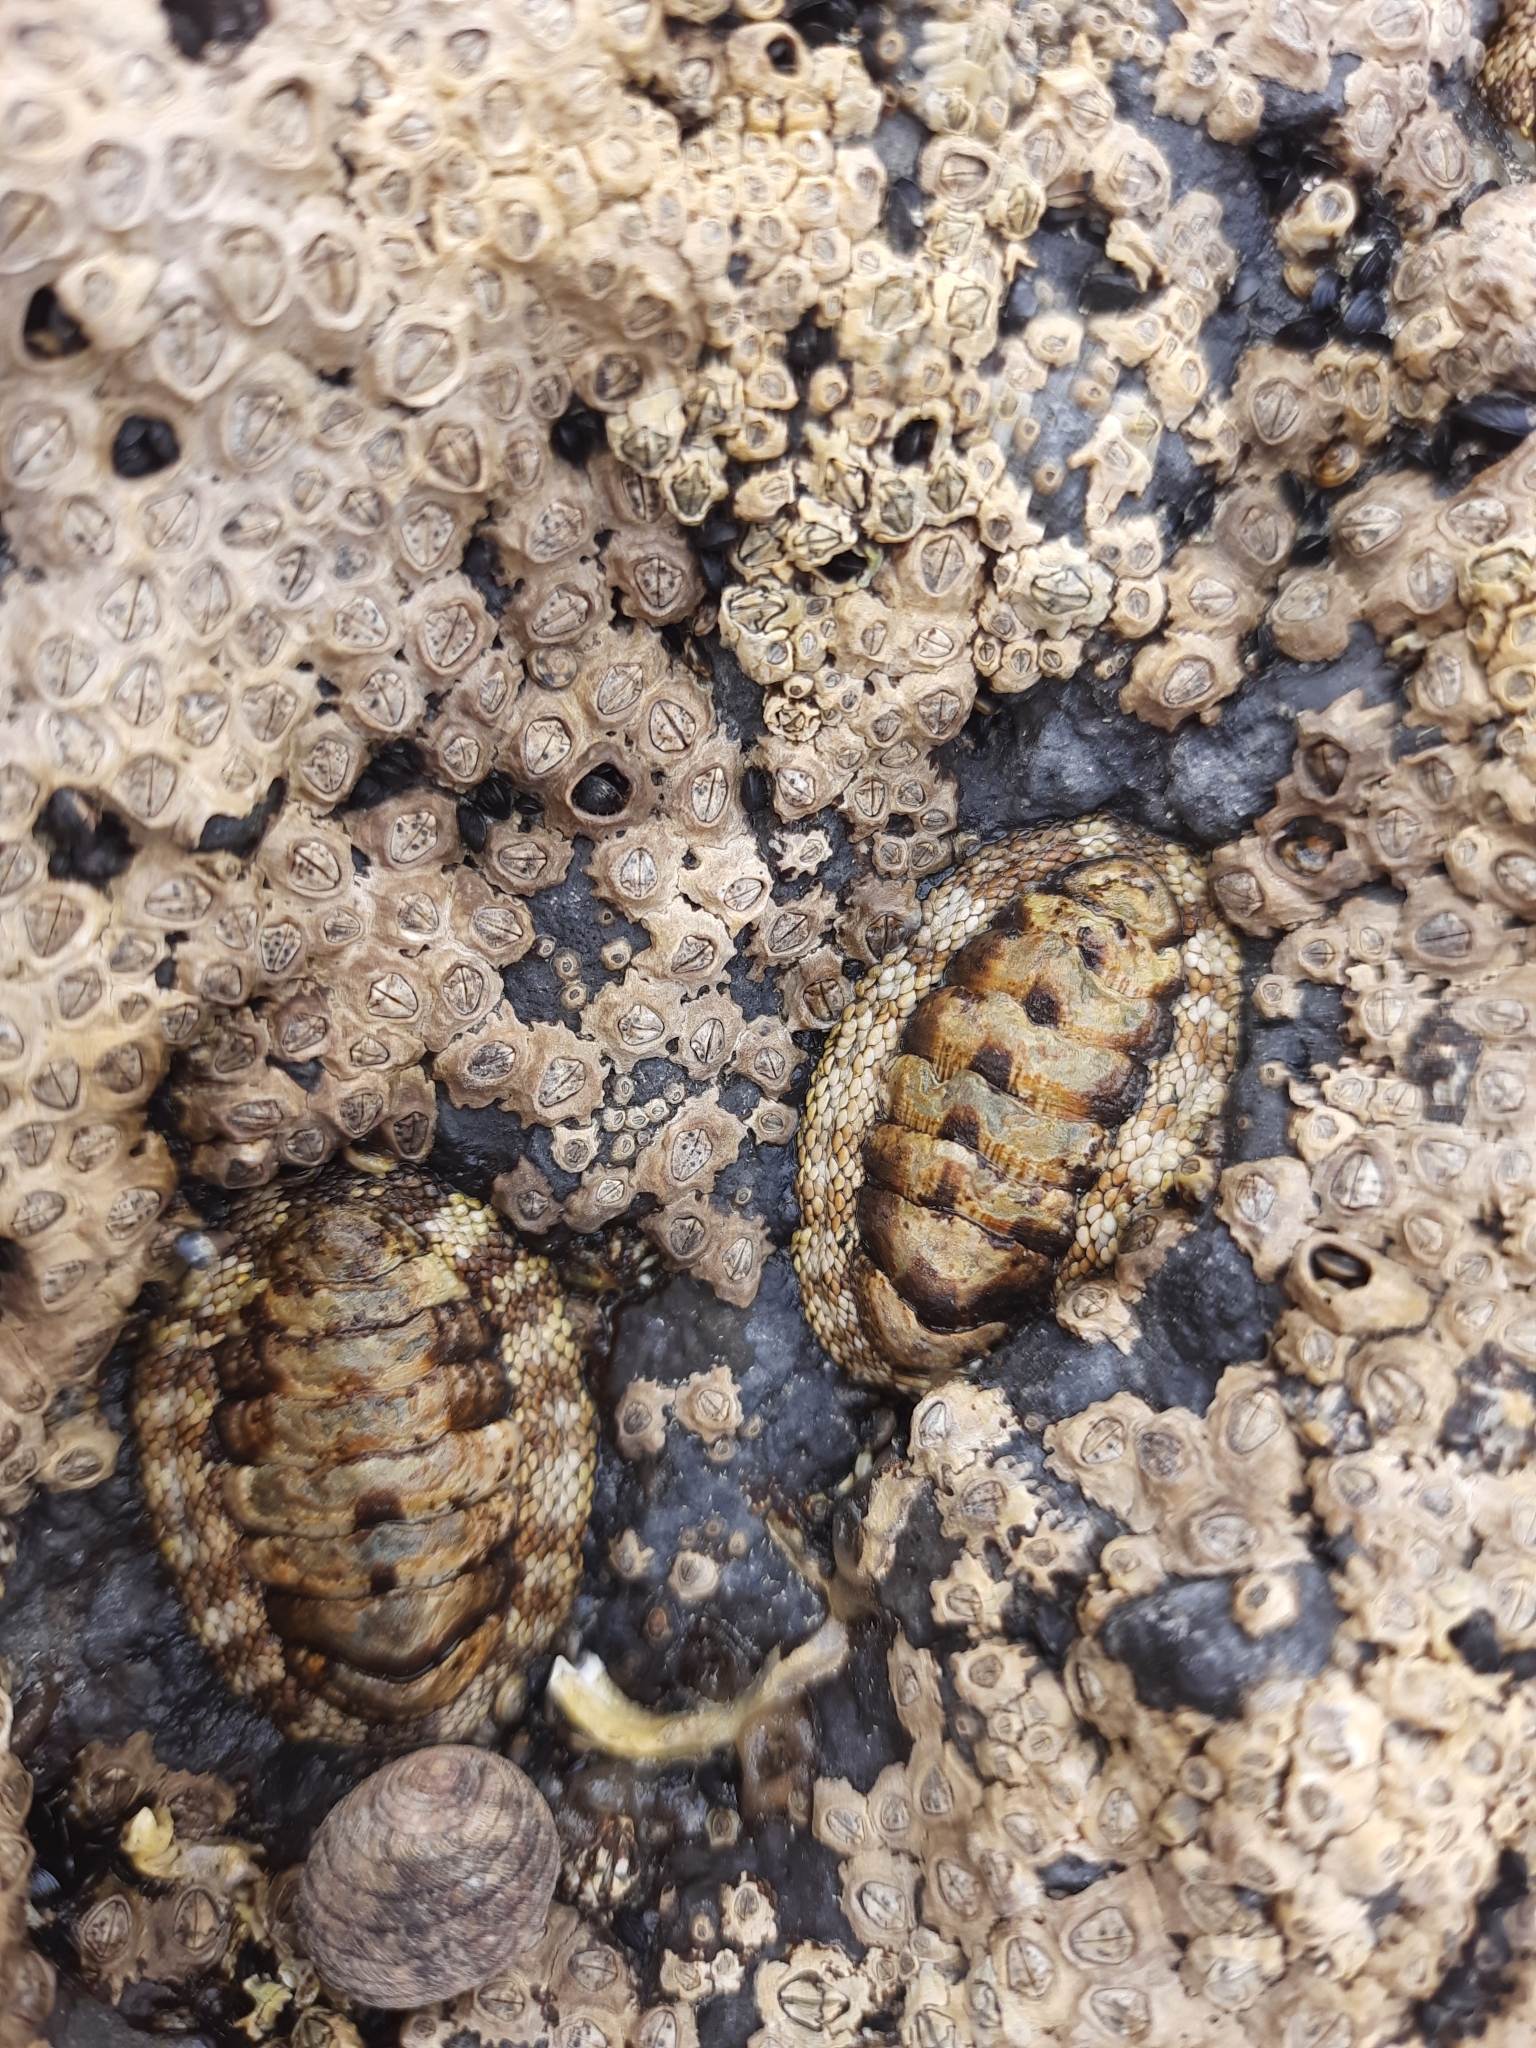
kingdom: Animalia
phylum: Mollusca
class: Polyplacophora
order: Chitonida
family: Chitonidae
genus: Sypharochiton
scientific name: Sypharochiton pelliserpentis
